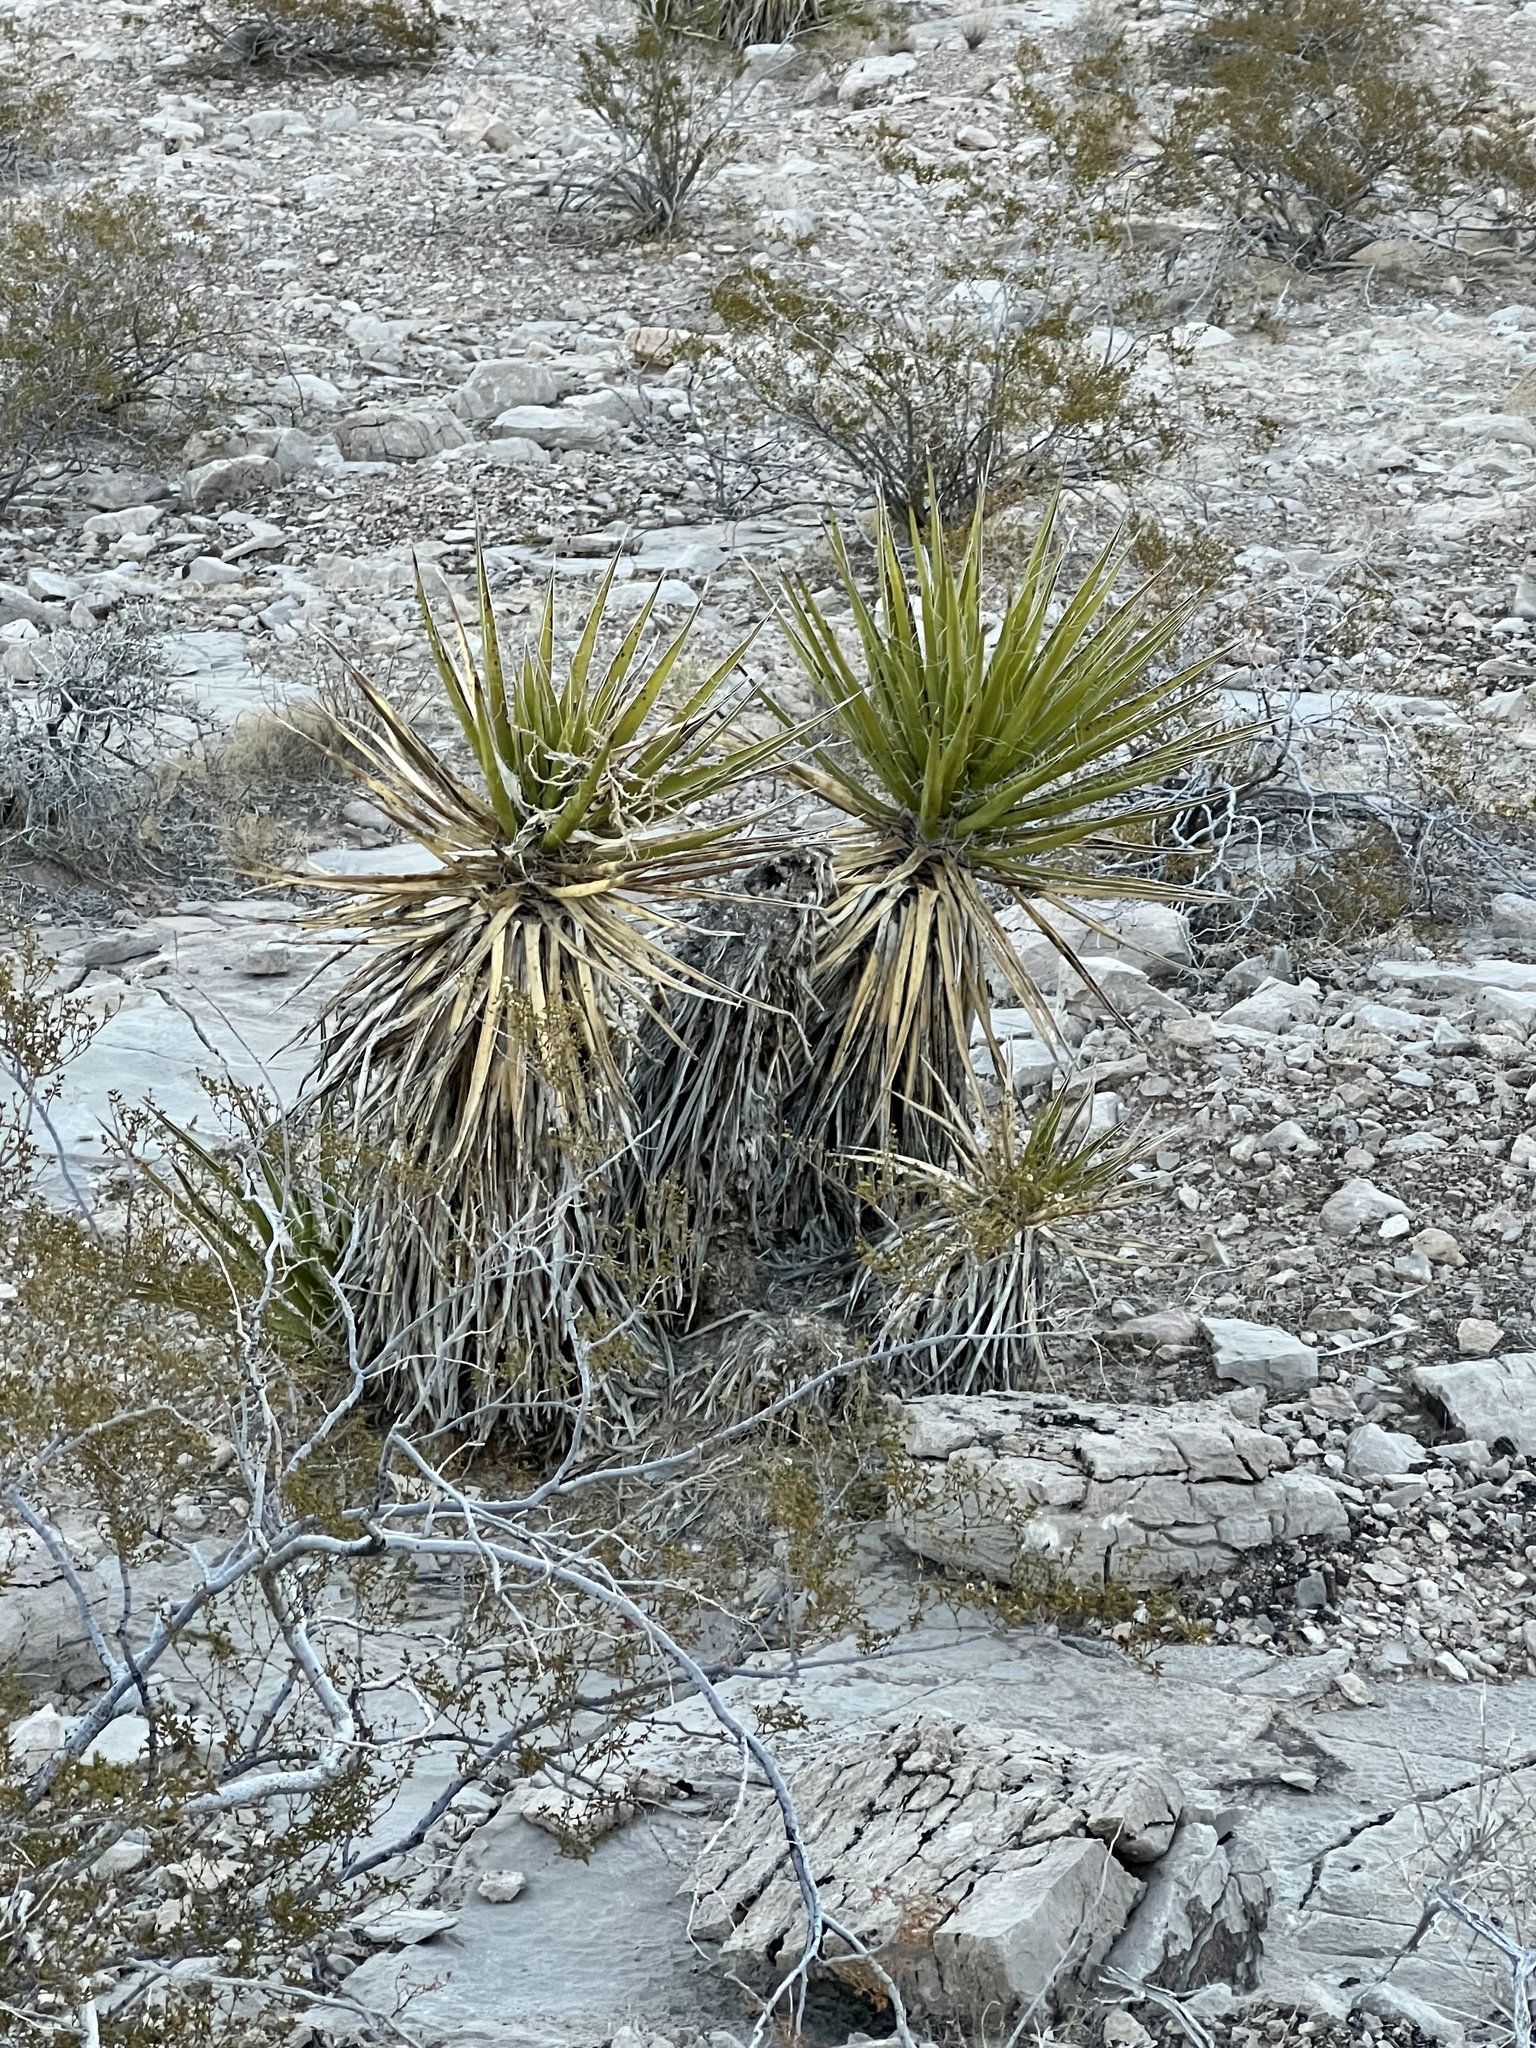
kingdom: Plantae
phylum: Tracheophyta
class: Liliopsida
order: Asparagales
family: Asparagaceae
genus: Yucca
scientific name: Yucca schidigera
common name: Mojave yucca
